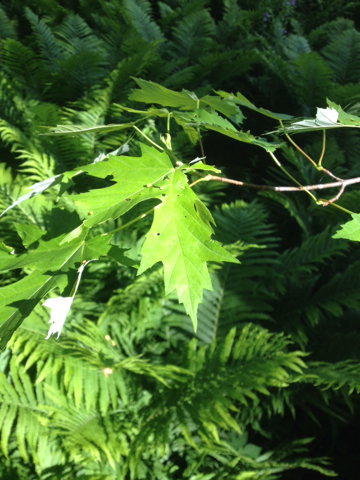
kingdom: Plantae
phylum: Tracheophyta
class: Magnoliopsida
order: Sapindales
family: Sapindaceae
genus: Acer
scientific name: Acer saccharinum
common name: Silver maple
